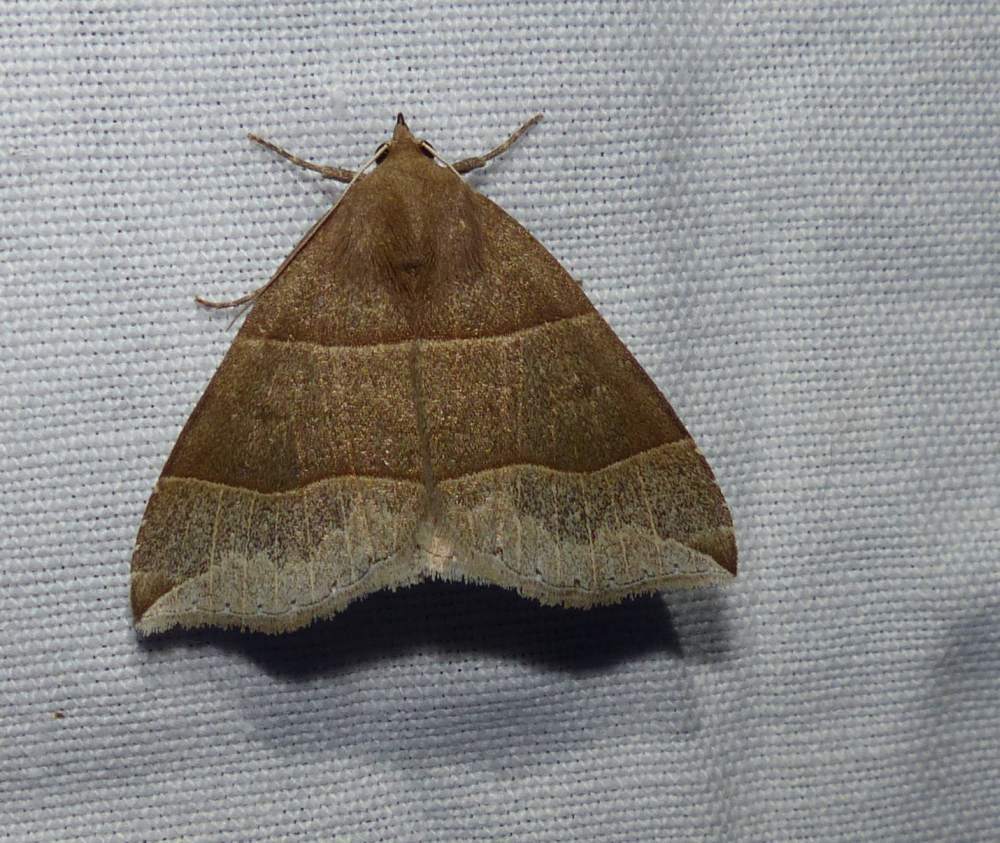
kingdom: Animalia
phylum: Arthropoda
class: Insecta
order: Lepidoptera
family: Erebidae
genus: Parallelia
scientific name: Parallelia bistriaris
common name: Maple looper moth
